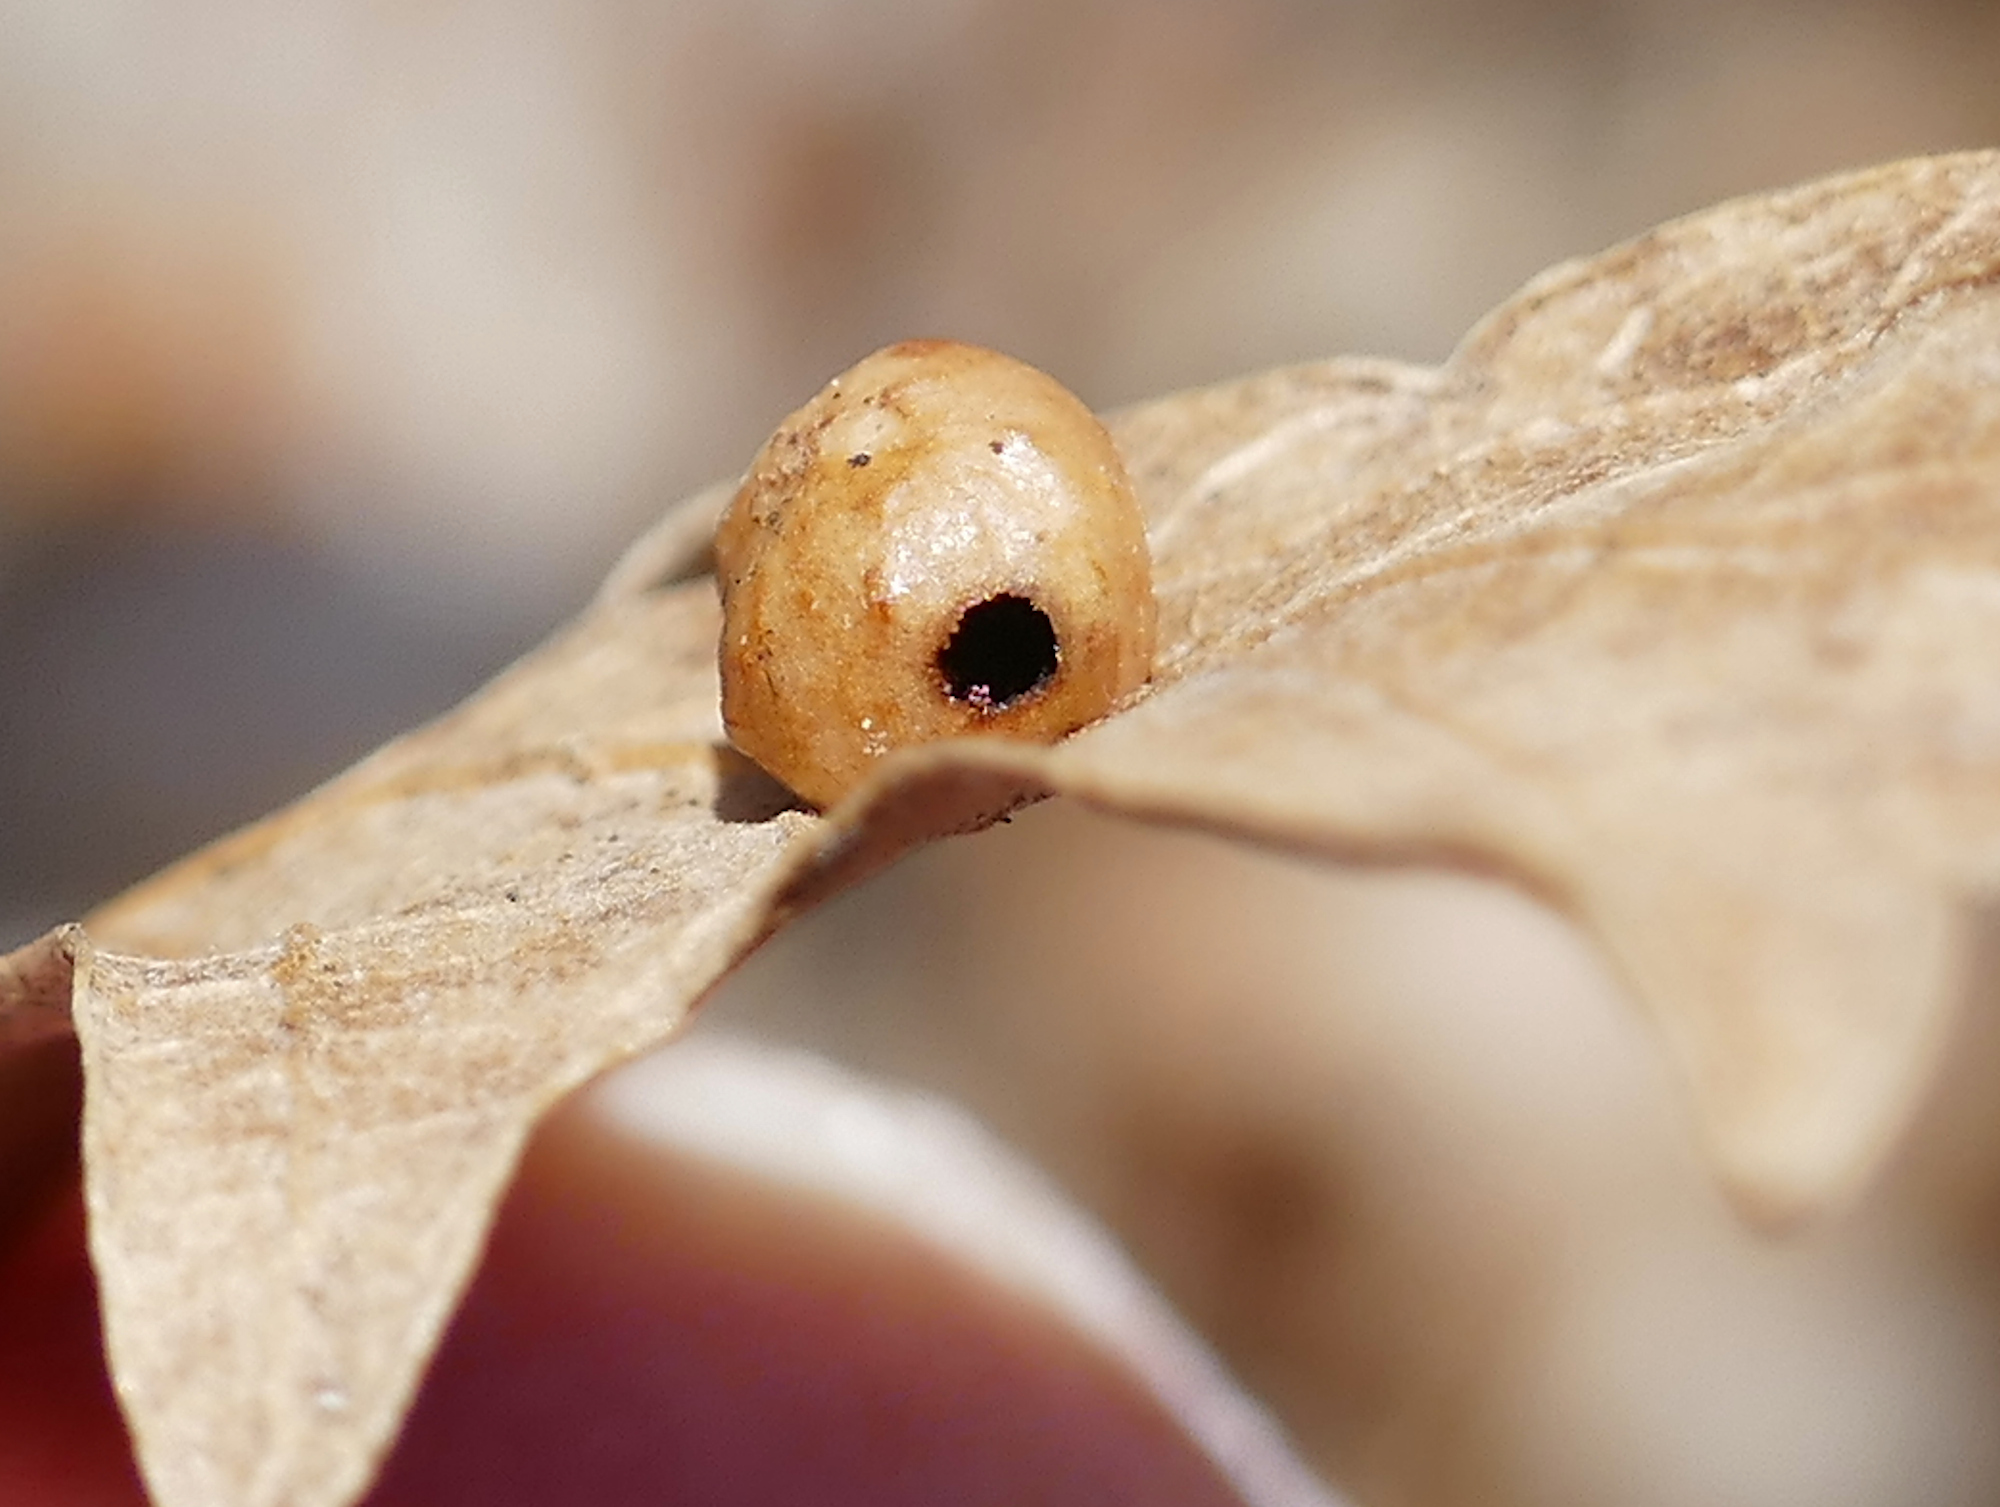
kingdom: Animalia
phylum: Arthropoda
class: Insecta
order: Hymenoptera
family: Cynipidae
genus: Trigonaspis
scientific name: Trigonaspis
